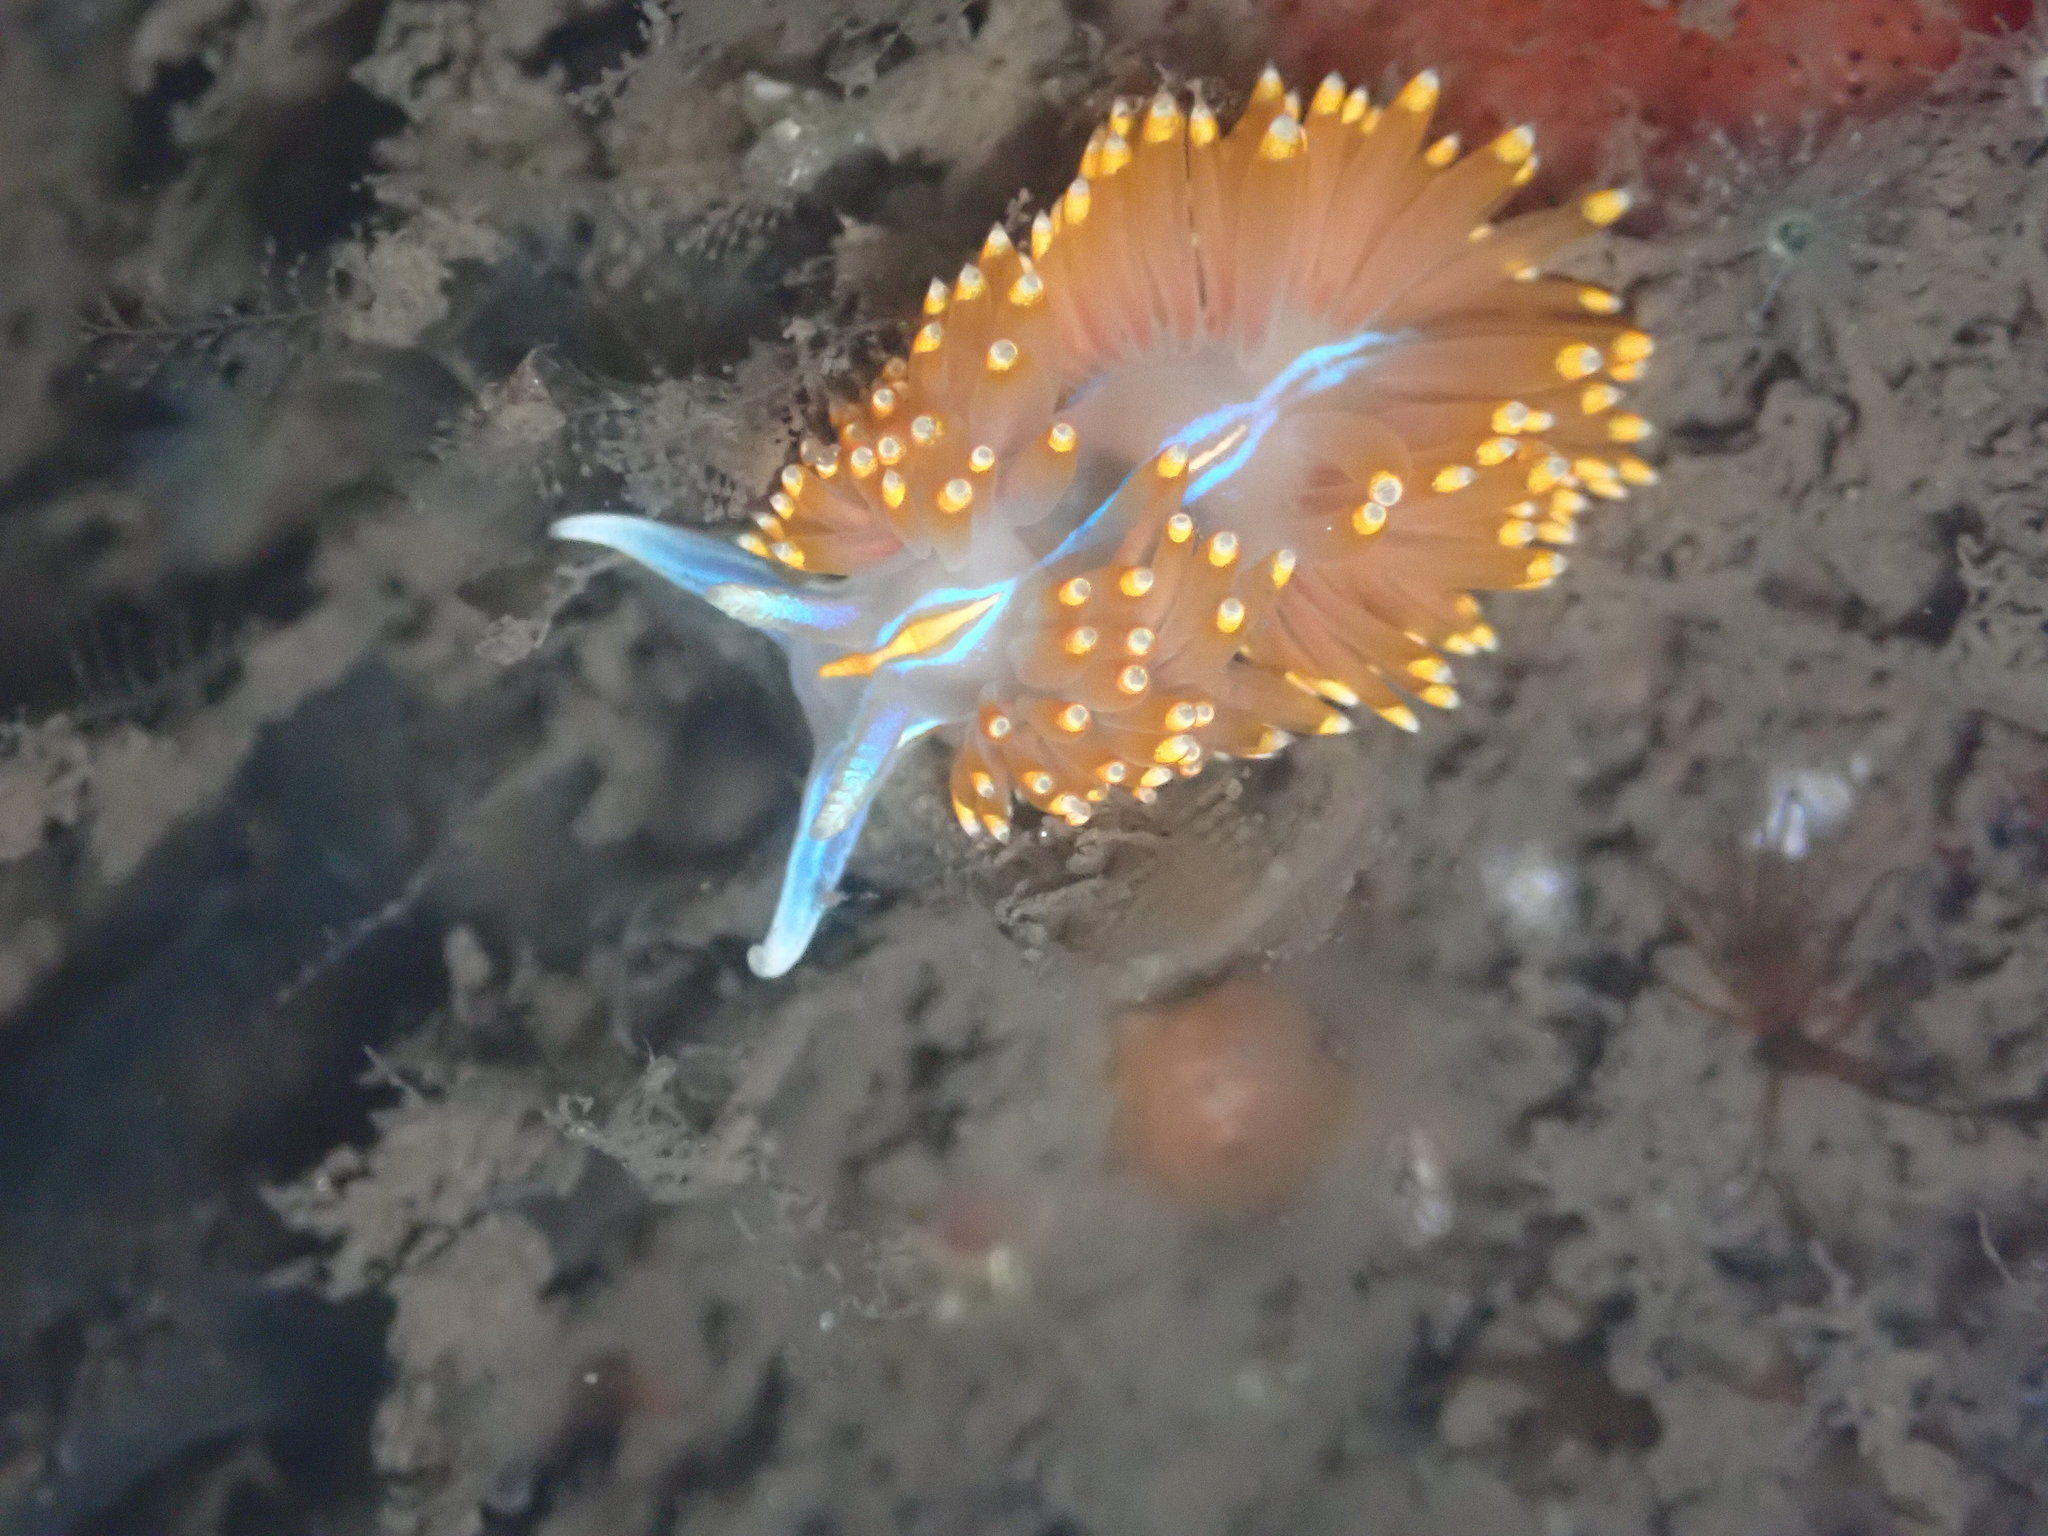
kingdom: Animalia
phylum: Mollusca
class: Gastropoda
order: Nudibranchia
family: Myrrhinidae
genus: Hermissenda
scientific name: Hermissenda opalescens
